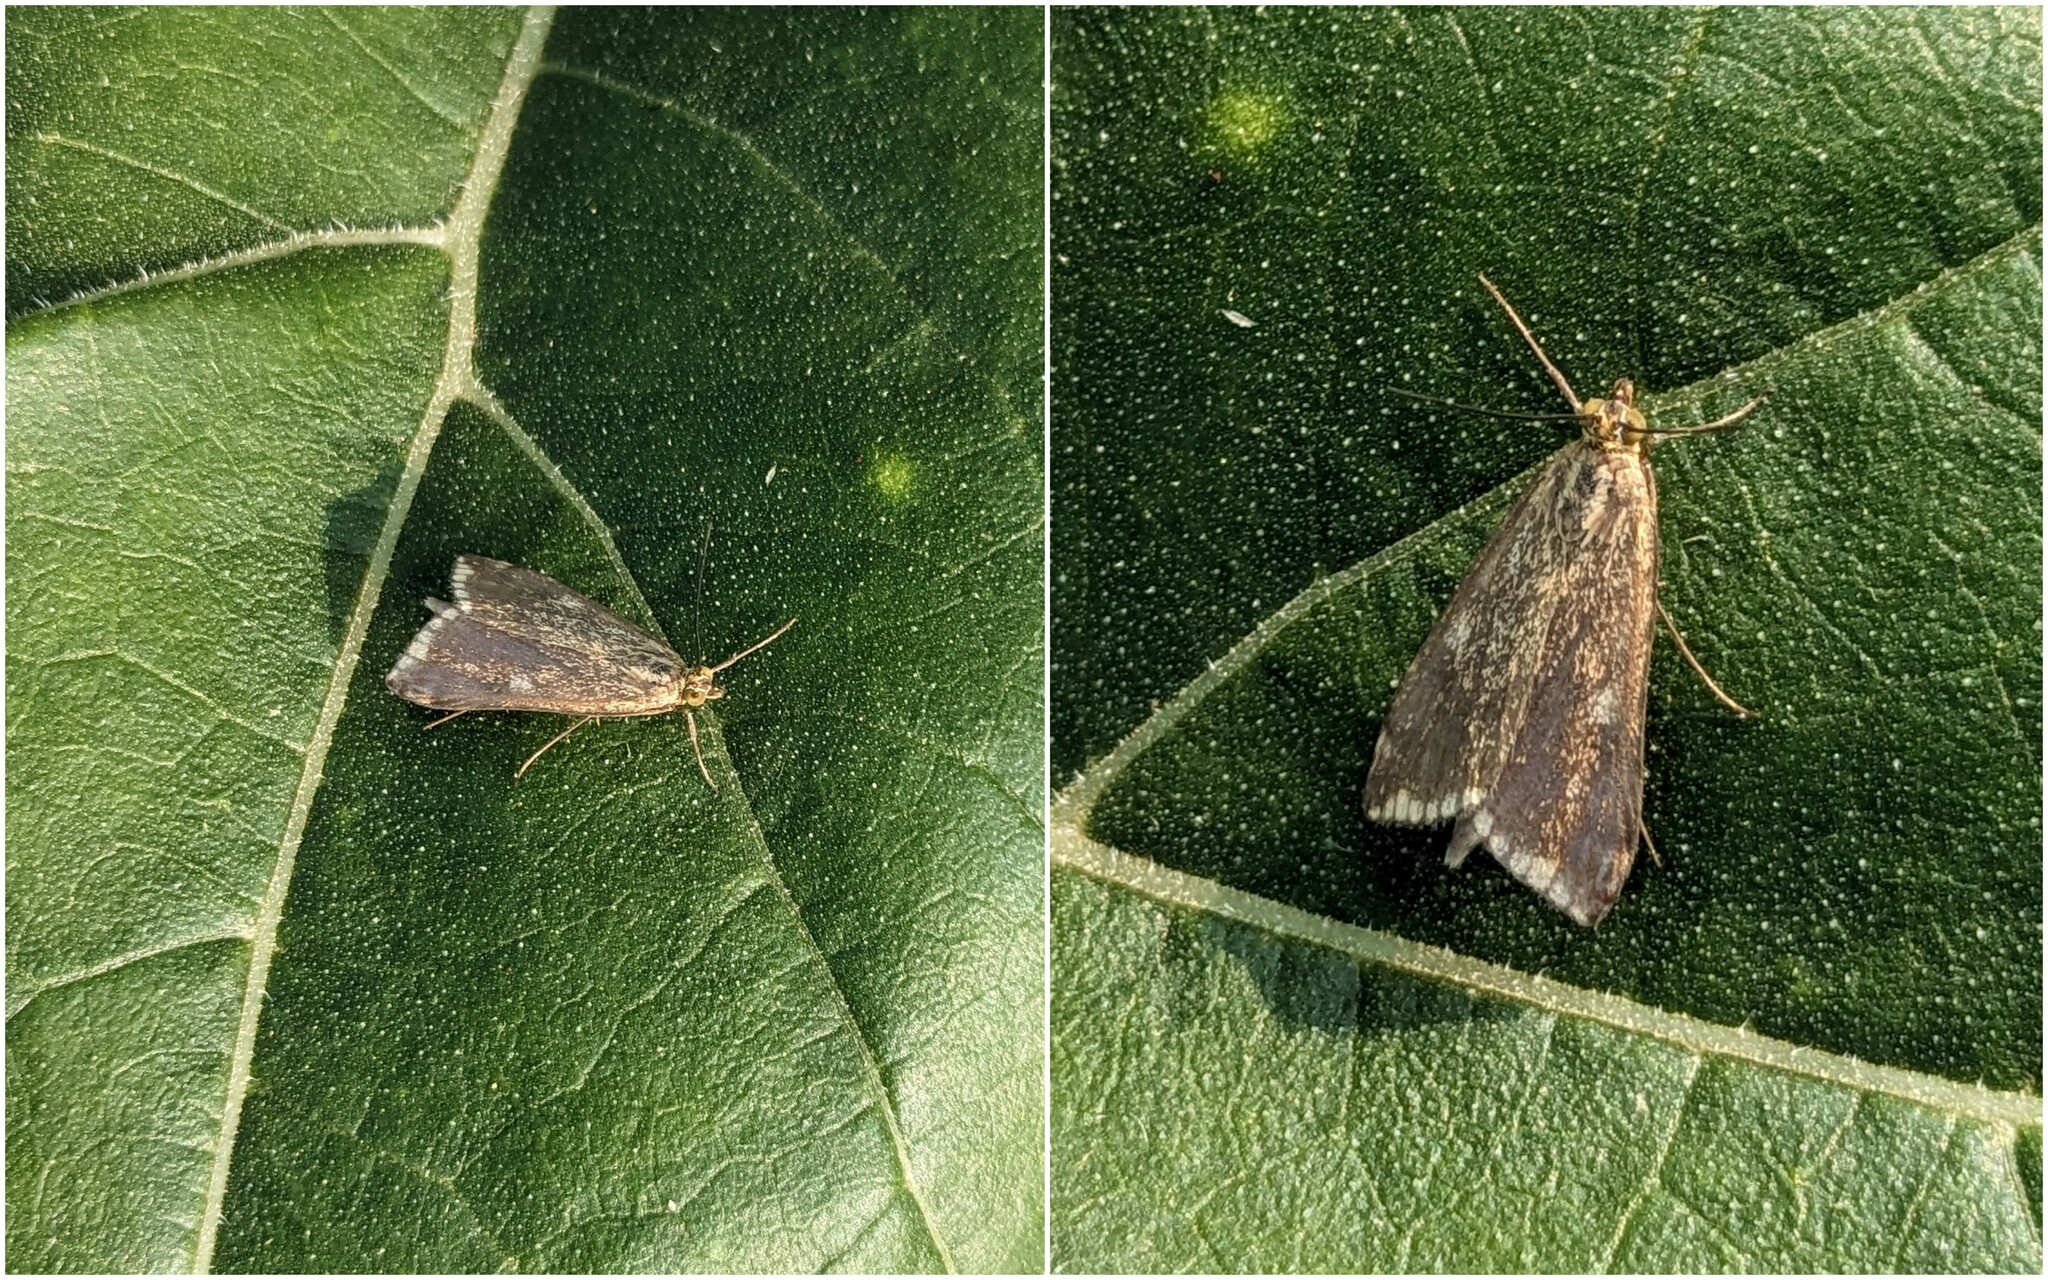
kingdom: Animalia
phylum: Arthropoda
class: Insecta
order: Lepidoptera
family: Crambidae
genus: Loxostege
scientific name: Loxostege sticticalis
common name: Crambid moth
